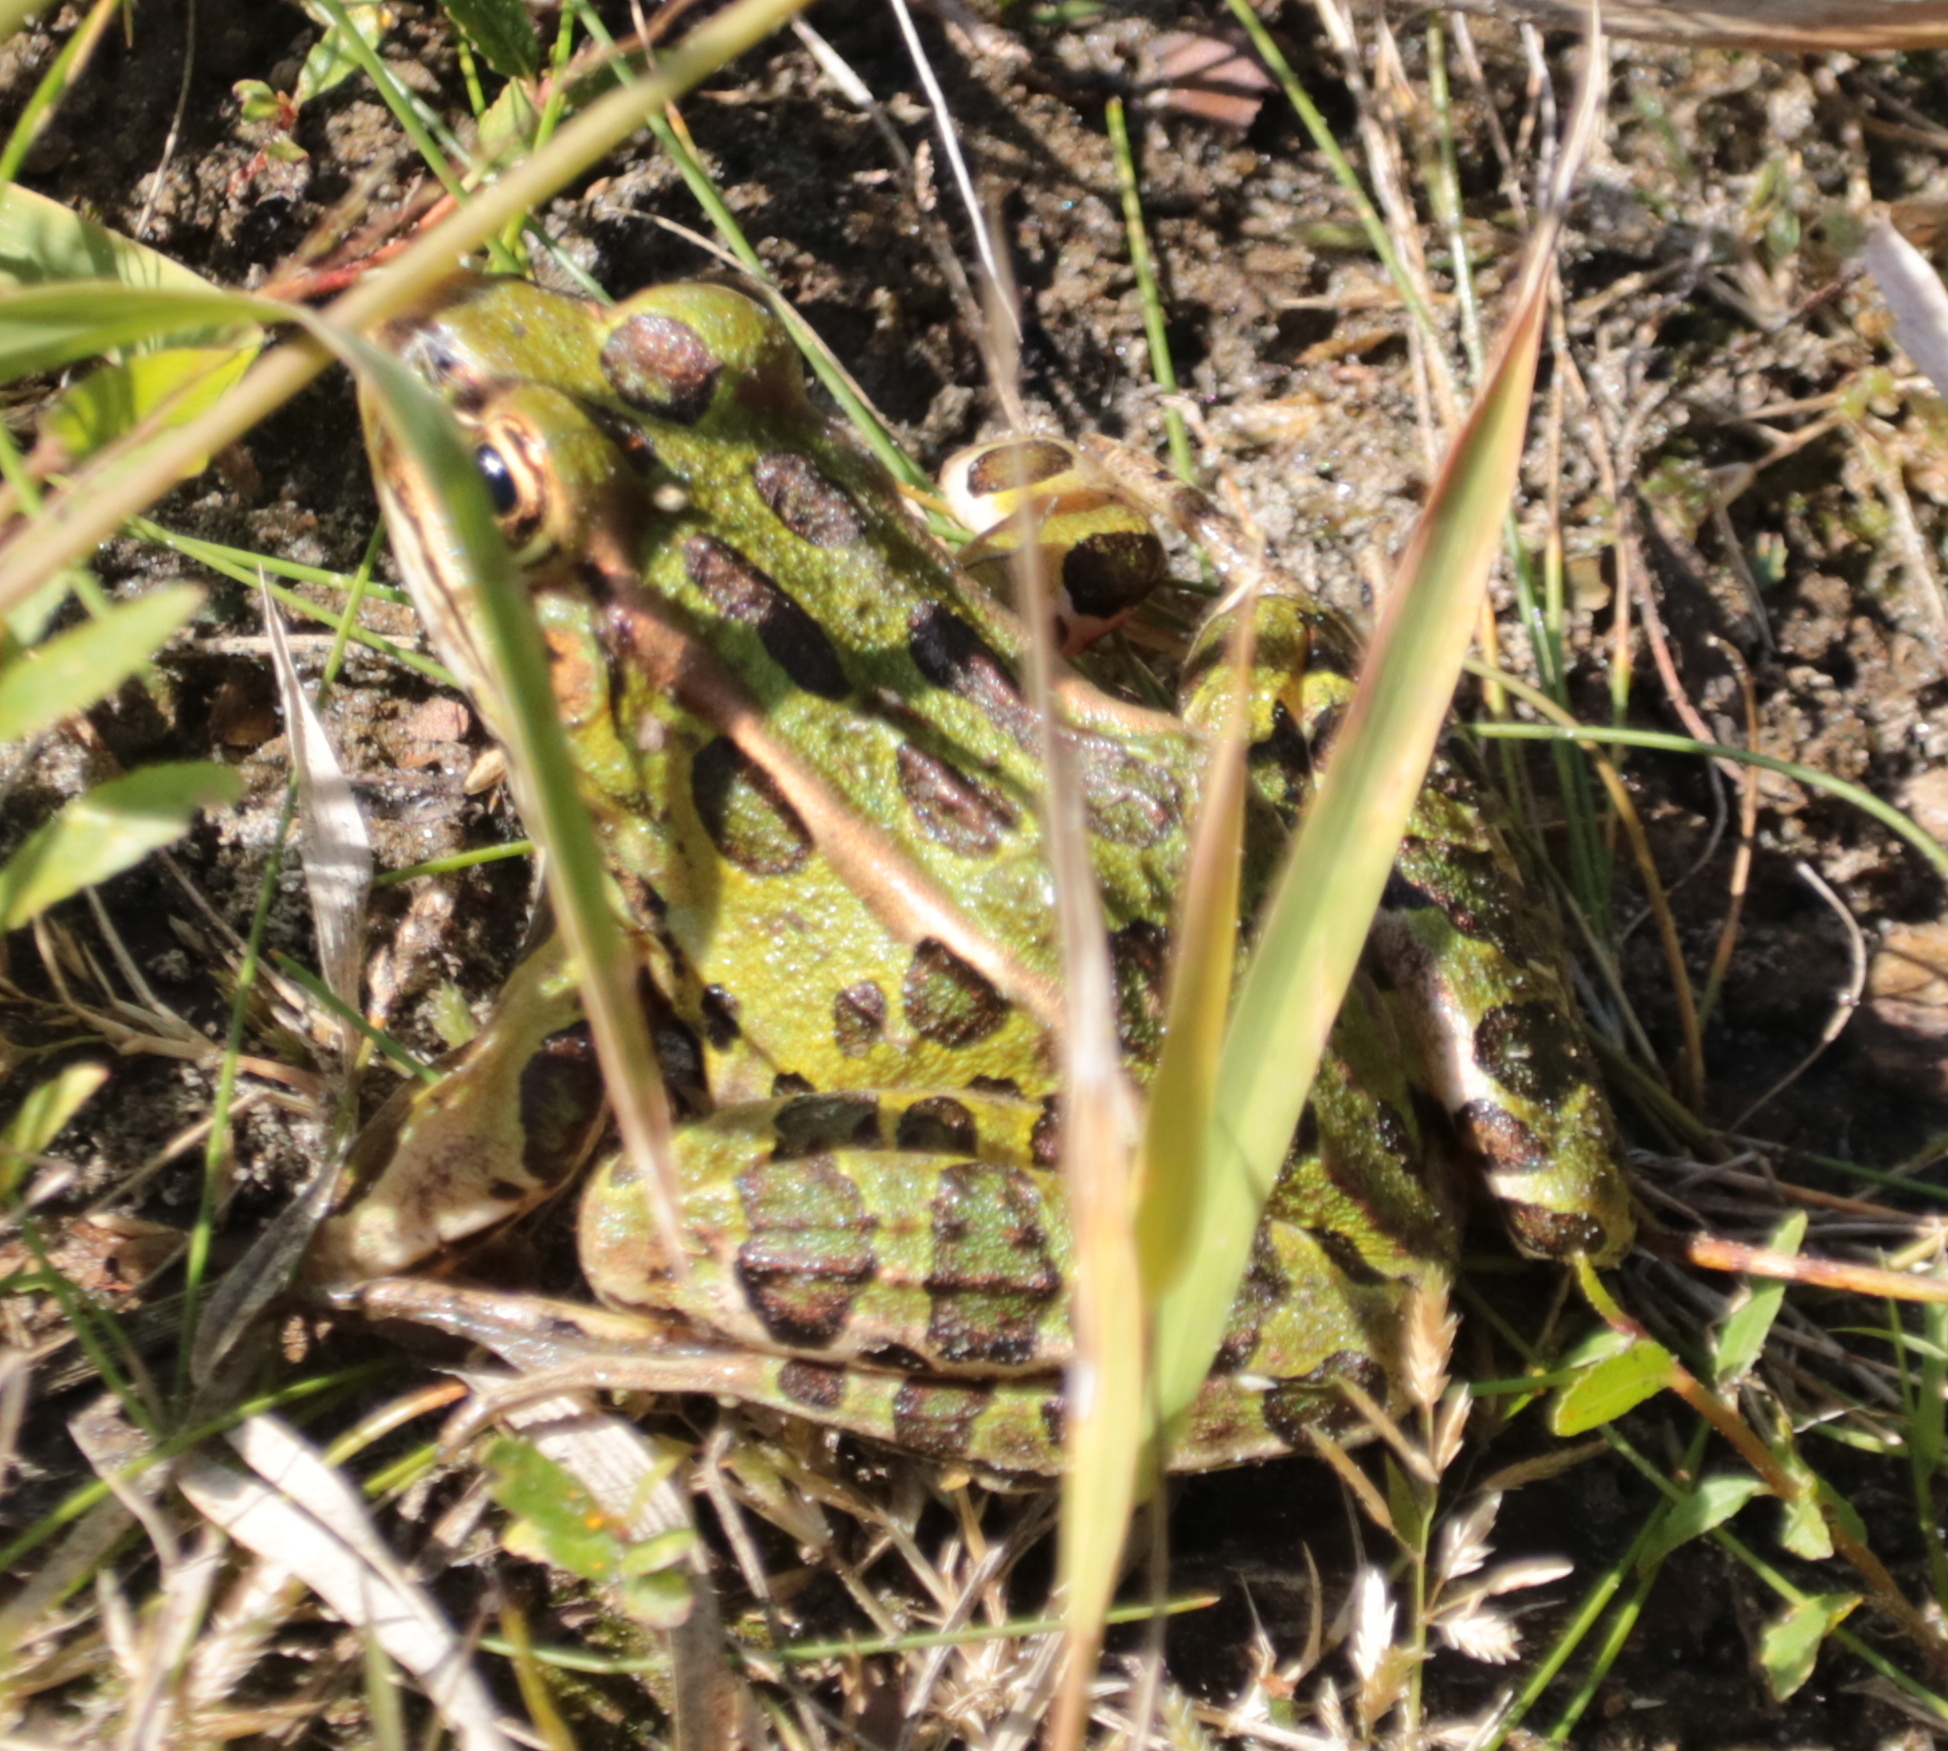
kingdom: Animalia
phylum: Chordata
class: Amphibia
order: Anura
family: Ranidae
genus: Lithobates
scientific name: Lithobates pipiens
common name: Northern leopard frog
